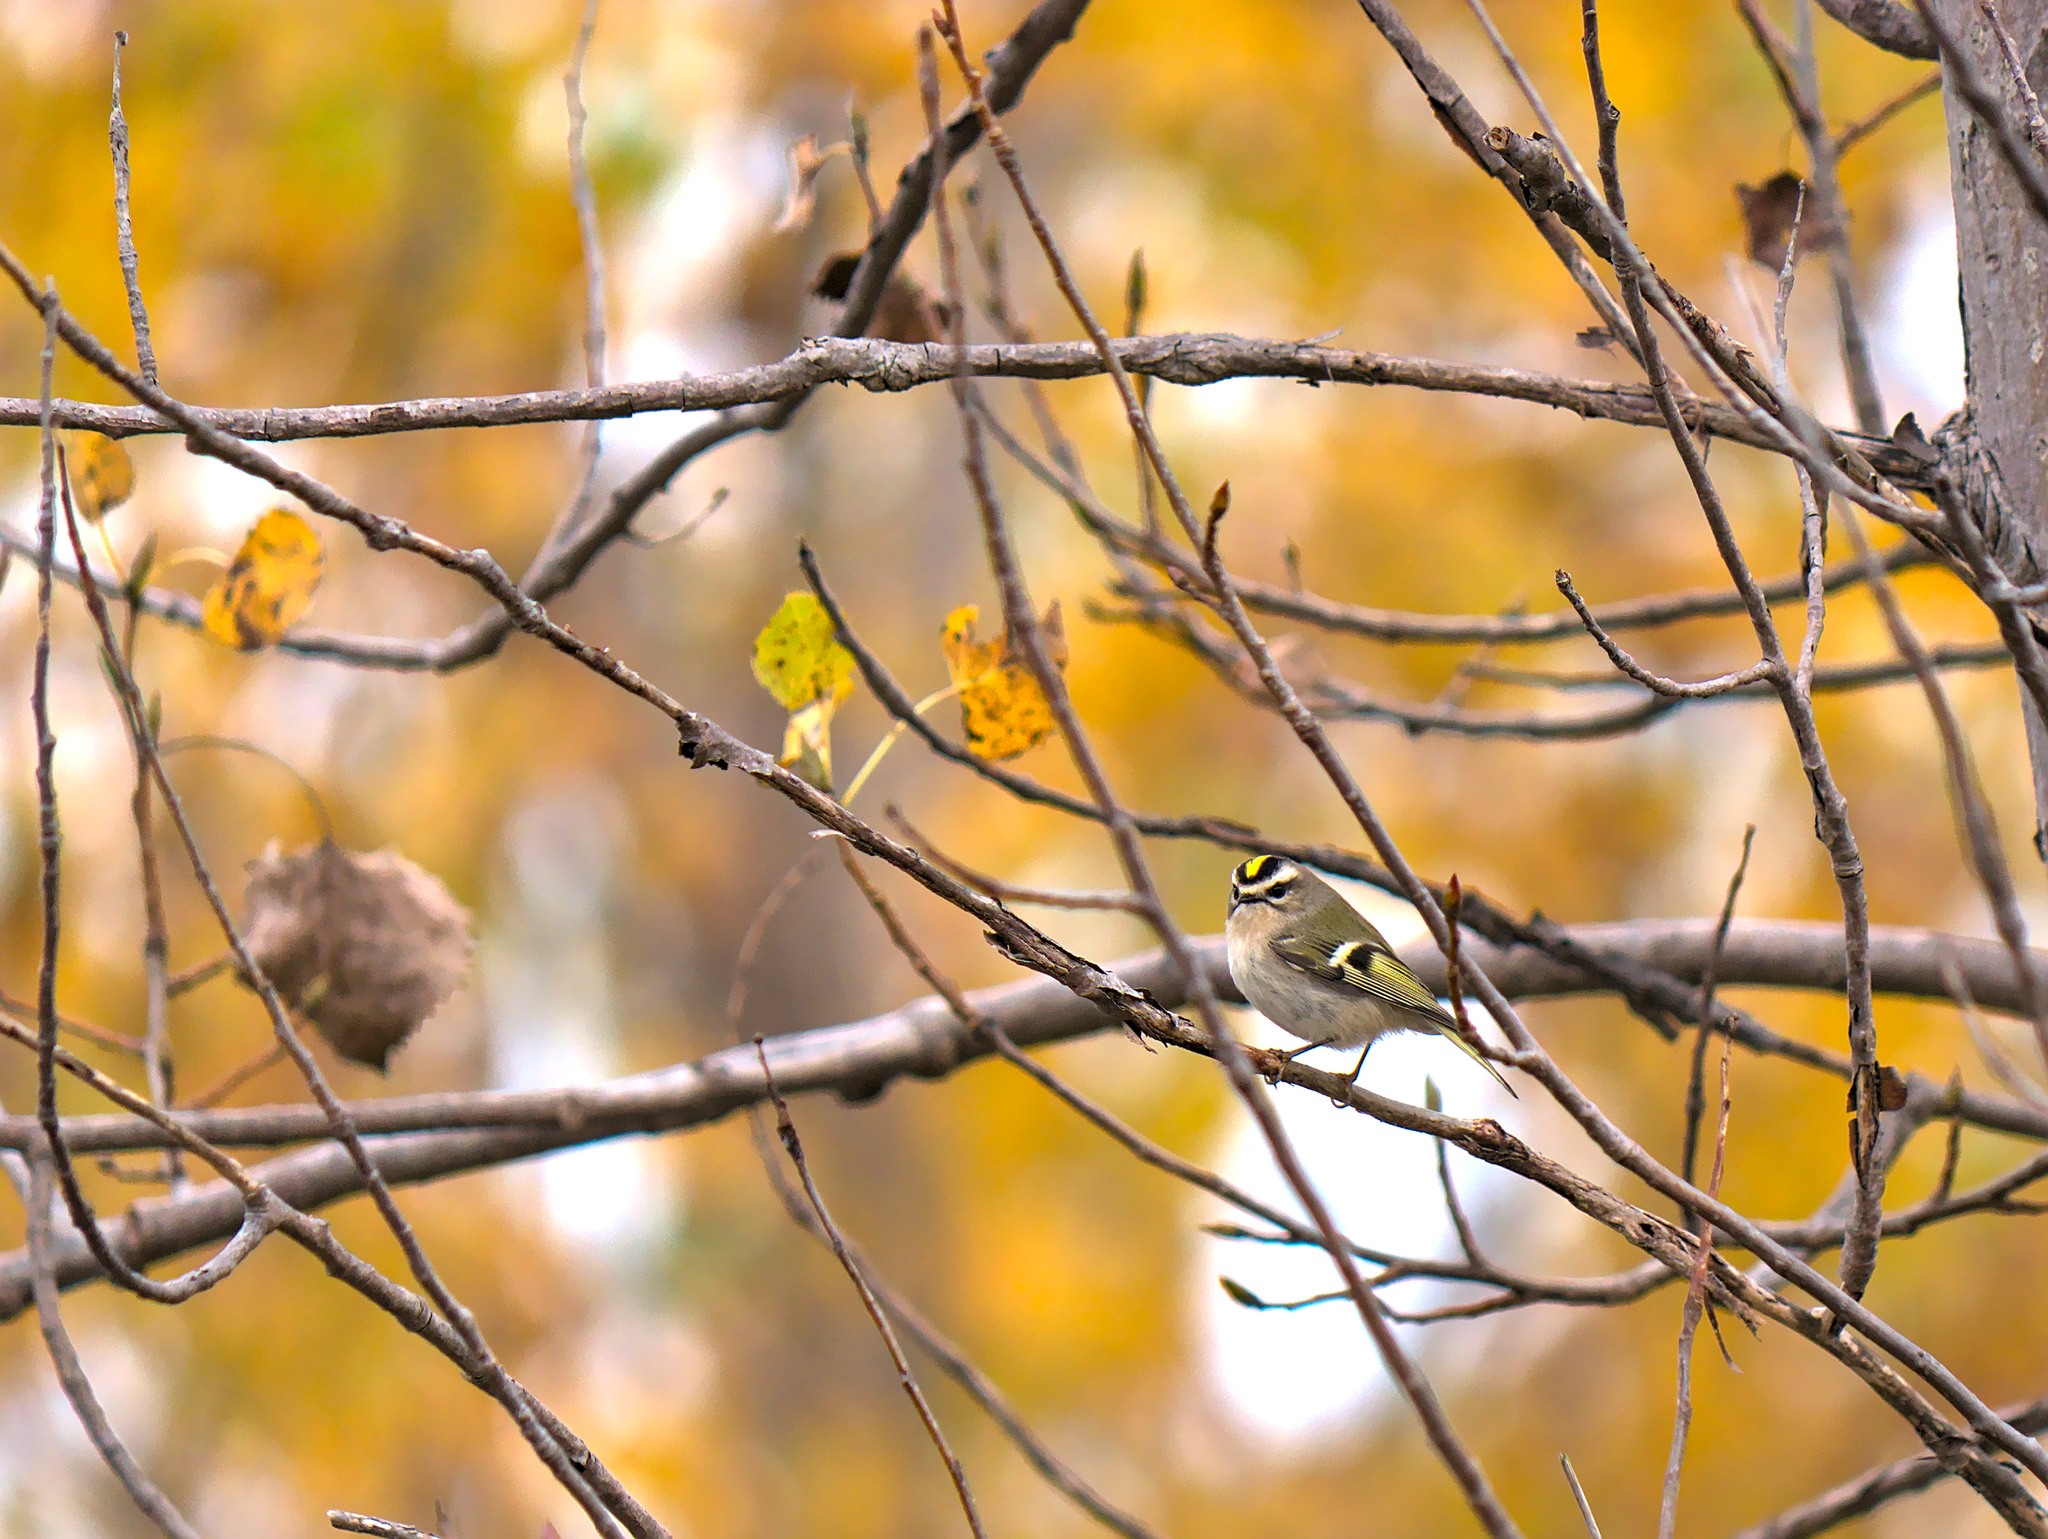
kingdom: Animalia
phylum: Chordata
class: Aves
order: Passeriformes
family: Regulidae
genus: Regulus
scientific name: Regulus satrapa
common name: Golden-crowned kinglet
